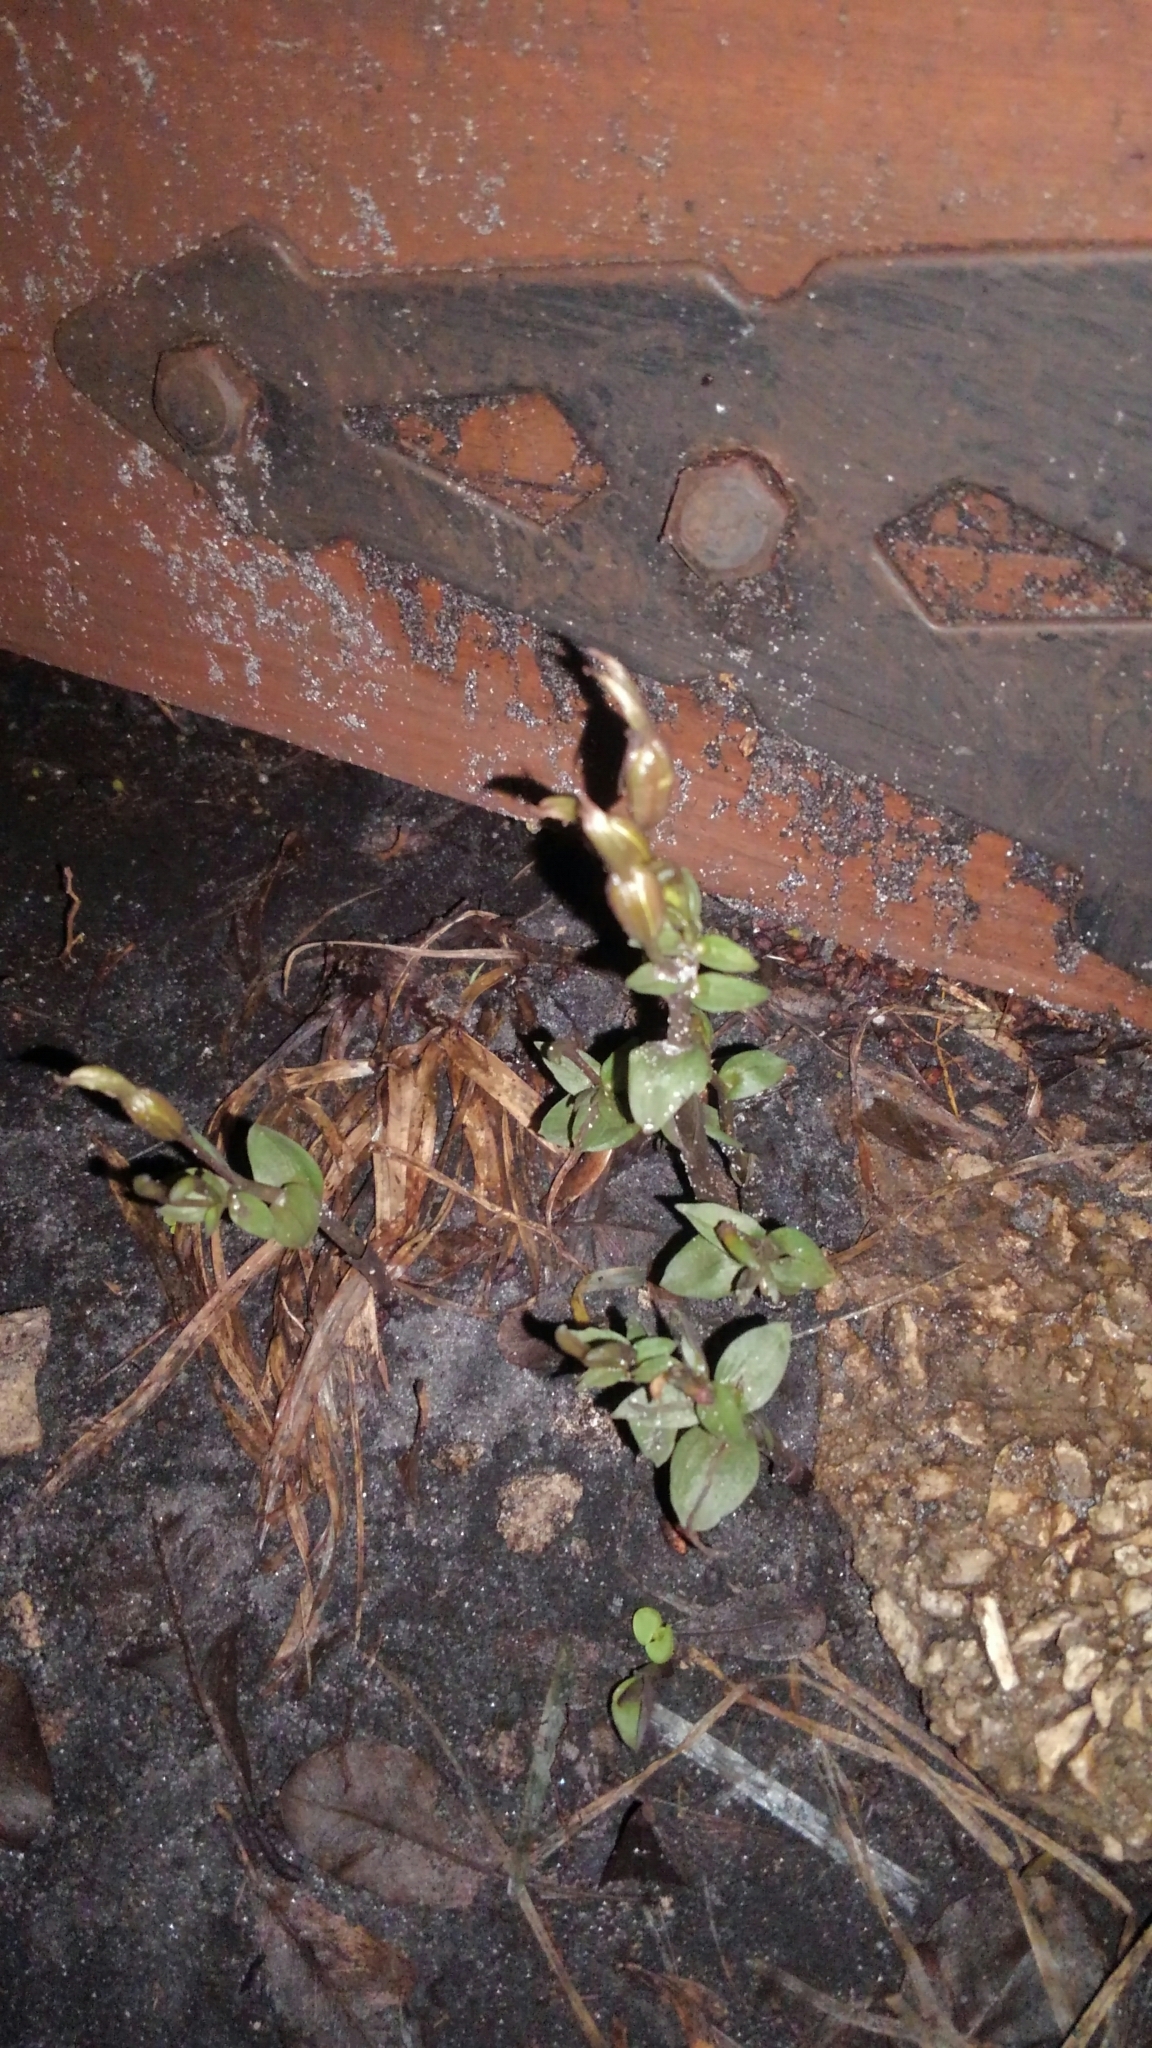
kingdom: Plantae
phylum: Tracheophyta
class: Liliopsida
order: Asparagales
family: Orchidaceae
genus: Triphora
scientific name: Triphora gentianoides
